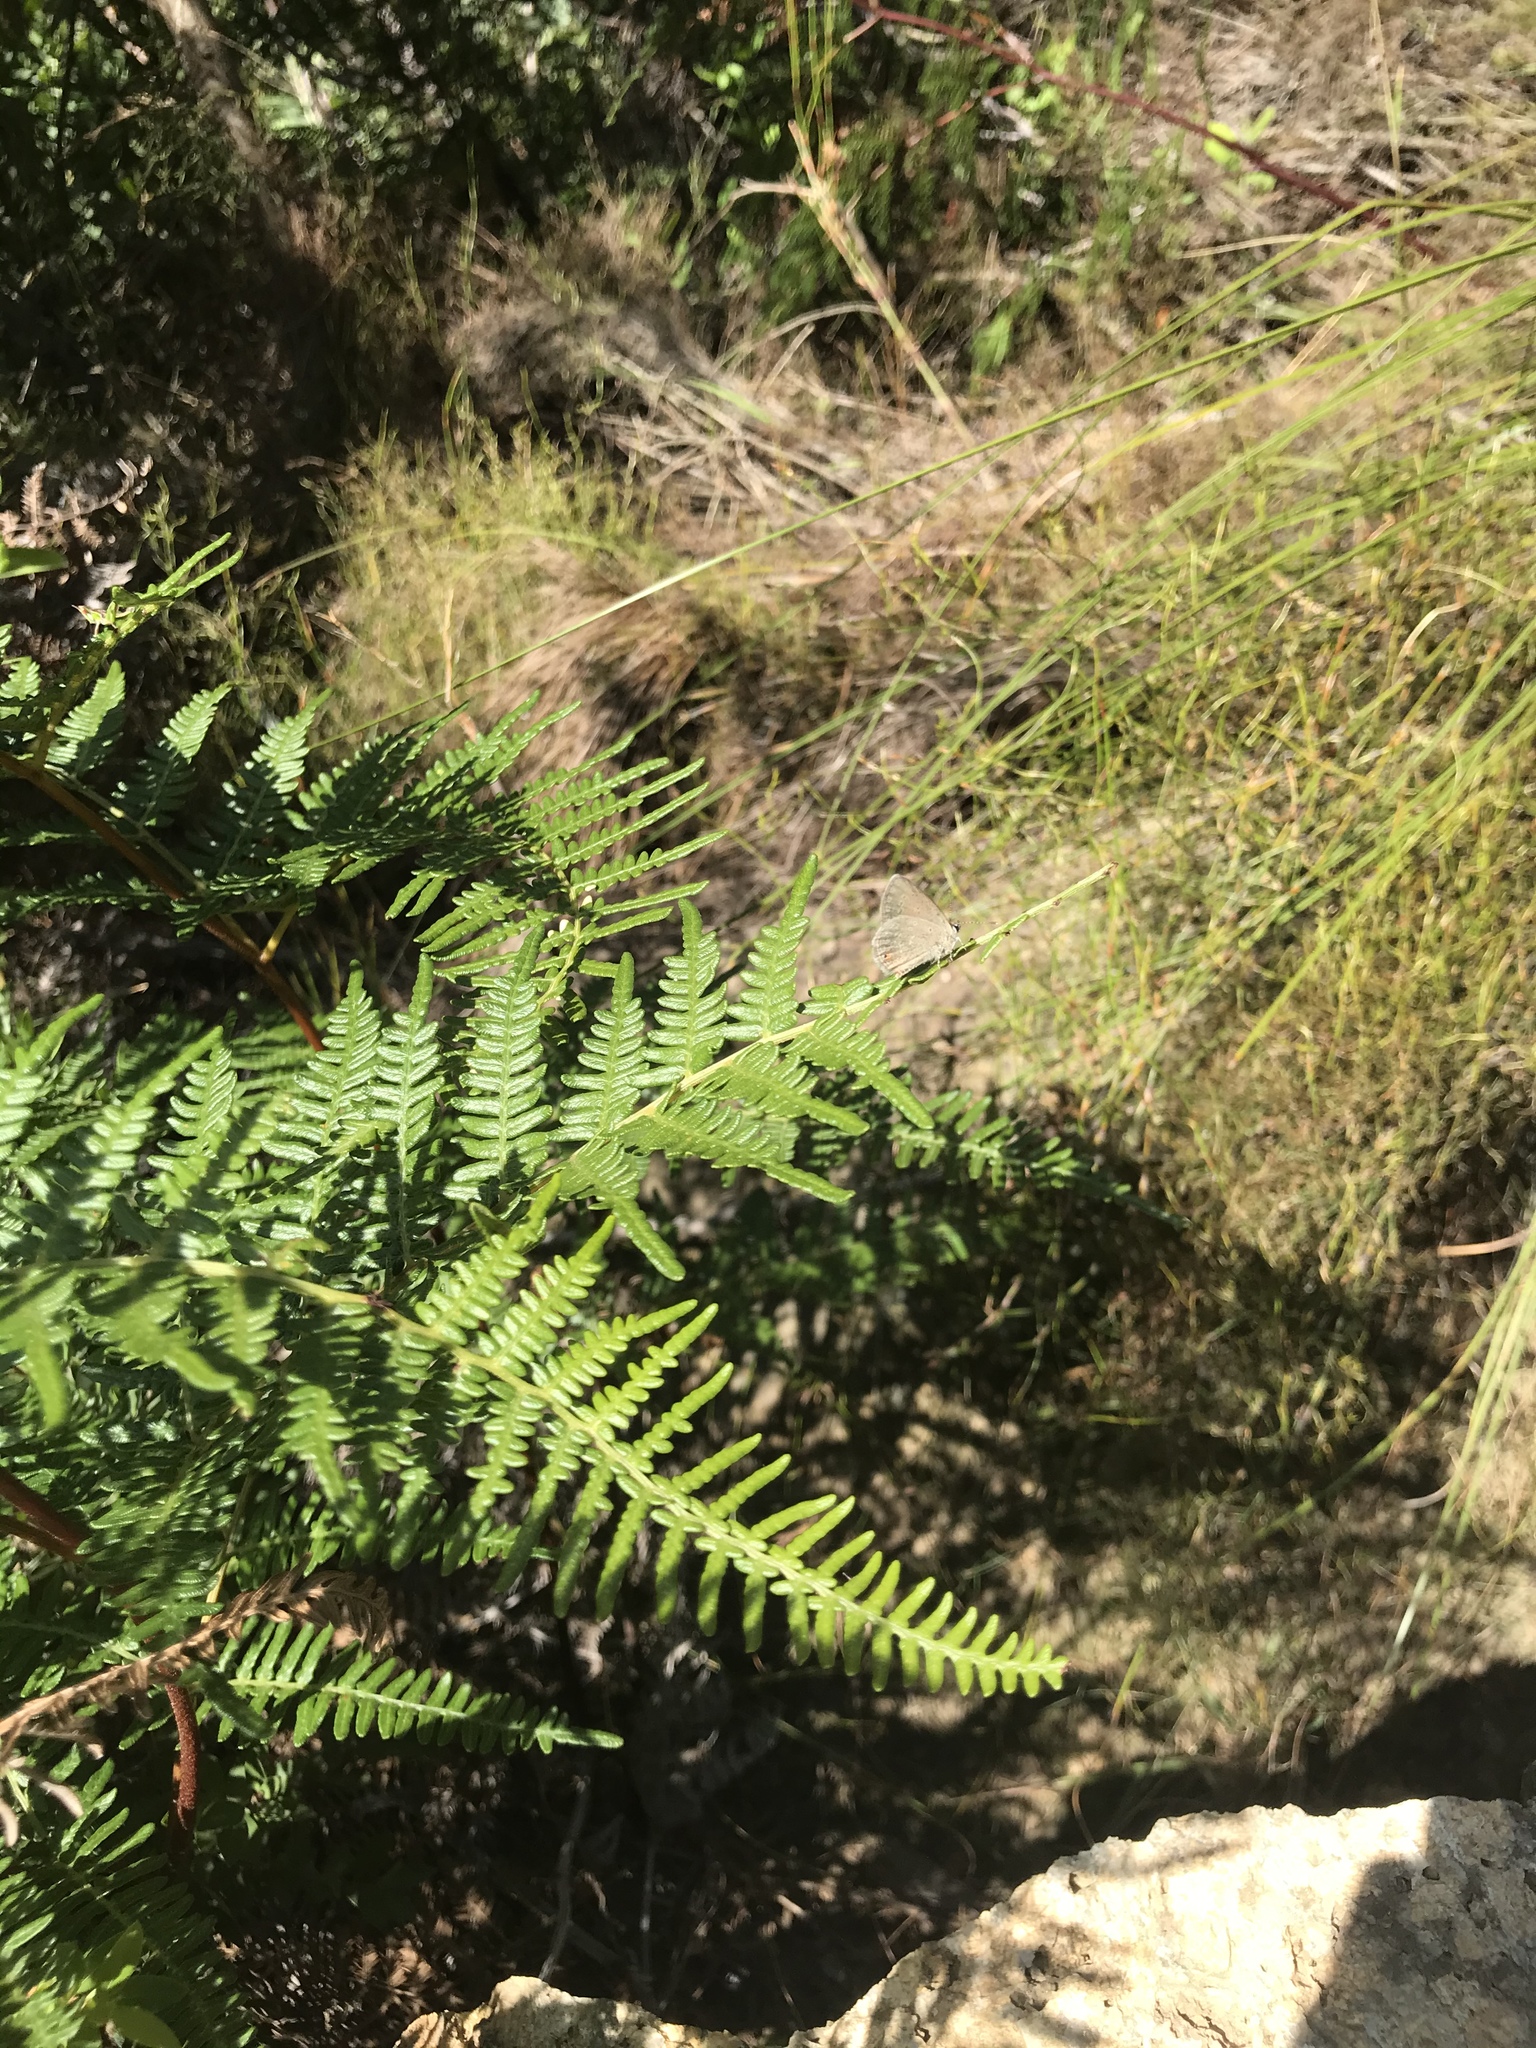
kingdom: Animalia
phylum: Arthropoda
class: Insecta
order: Lepidoptera
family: Lycaenidae
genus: Eicochrysops
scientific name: Eicochrysops messapus
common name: Cupreous blue
